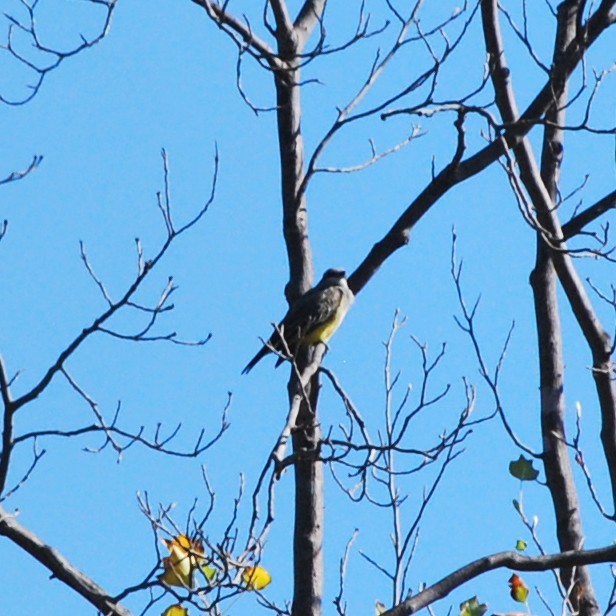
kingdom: Animalia
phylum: Chordata
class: Aves
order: Passeriformes
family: Tyrannidae
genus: Tyrannus
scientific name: Tyrannus vociferans
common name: Cassin's kingbird
